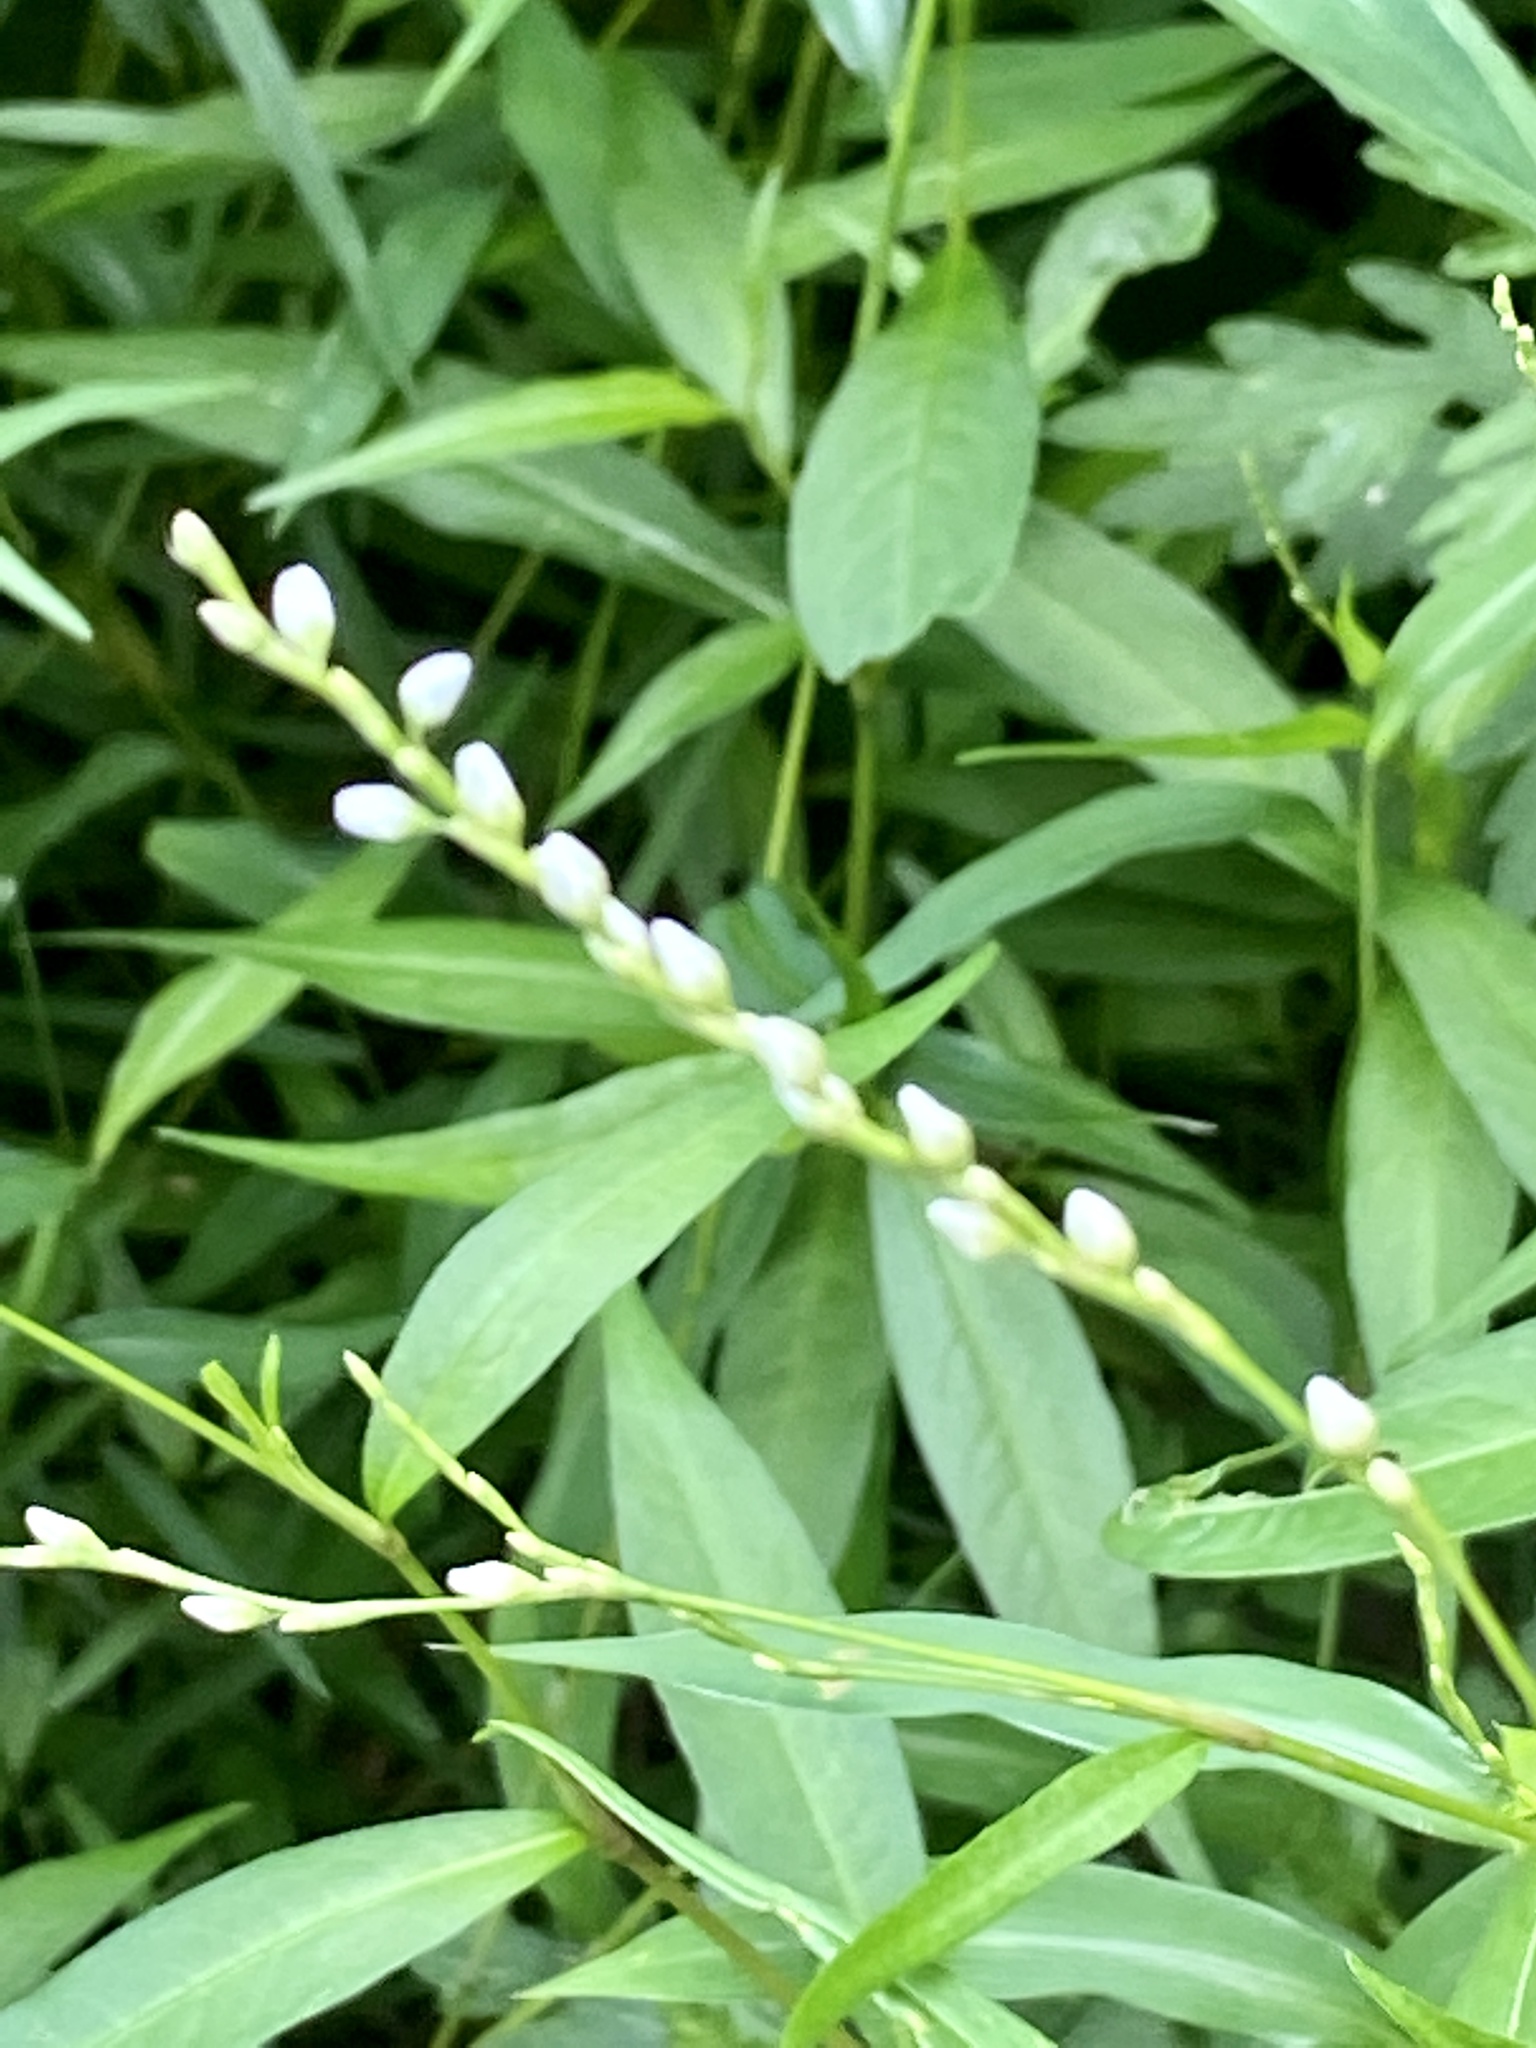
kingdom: Plantae
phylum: Tracheophyta
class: Magnoliopsida
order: Caryophyllales
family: Polygonaceae
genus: Persicaria
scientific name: Persicaria punctata
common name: Dotted smartweed
